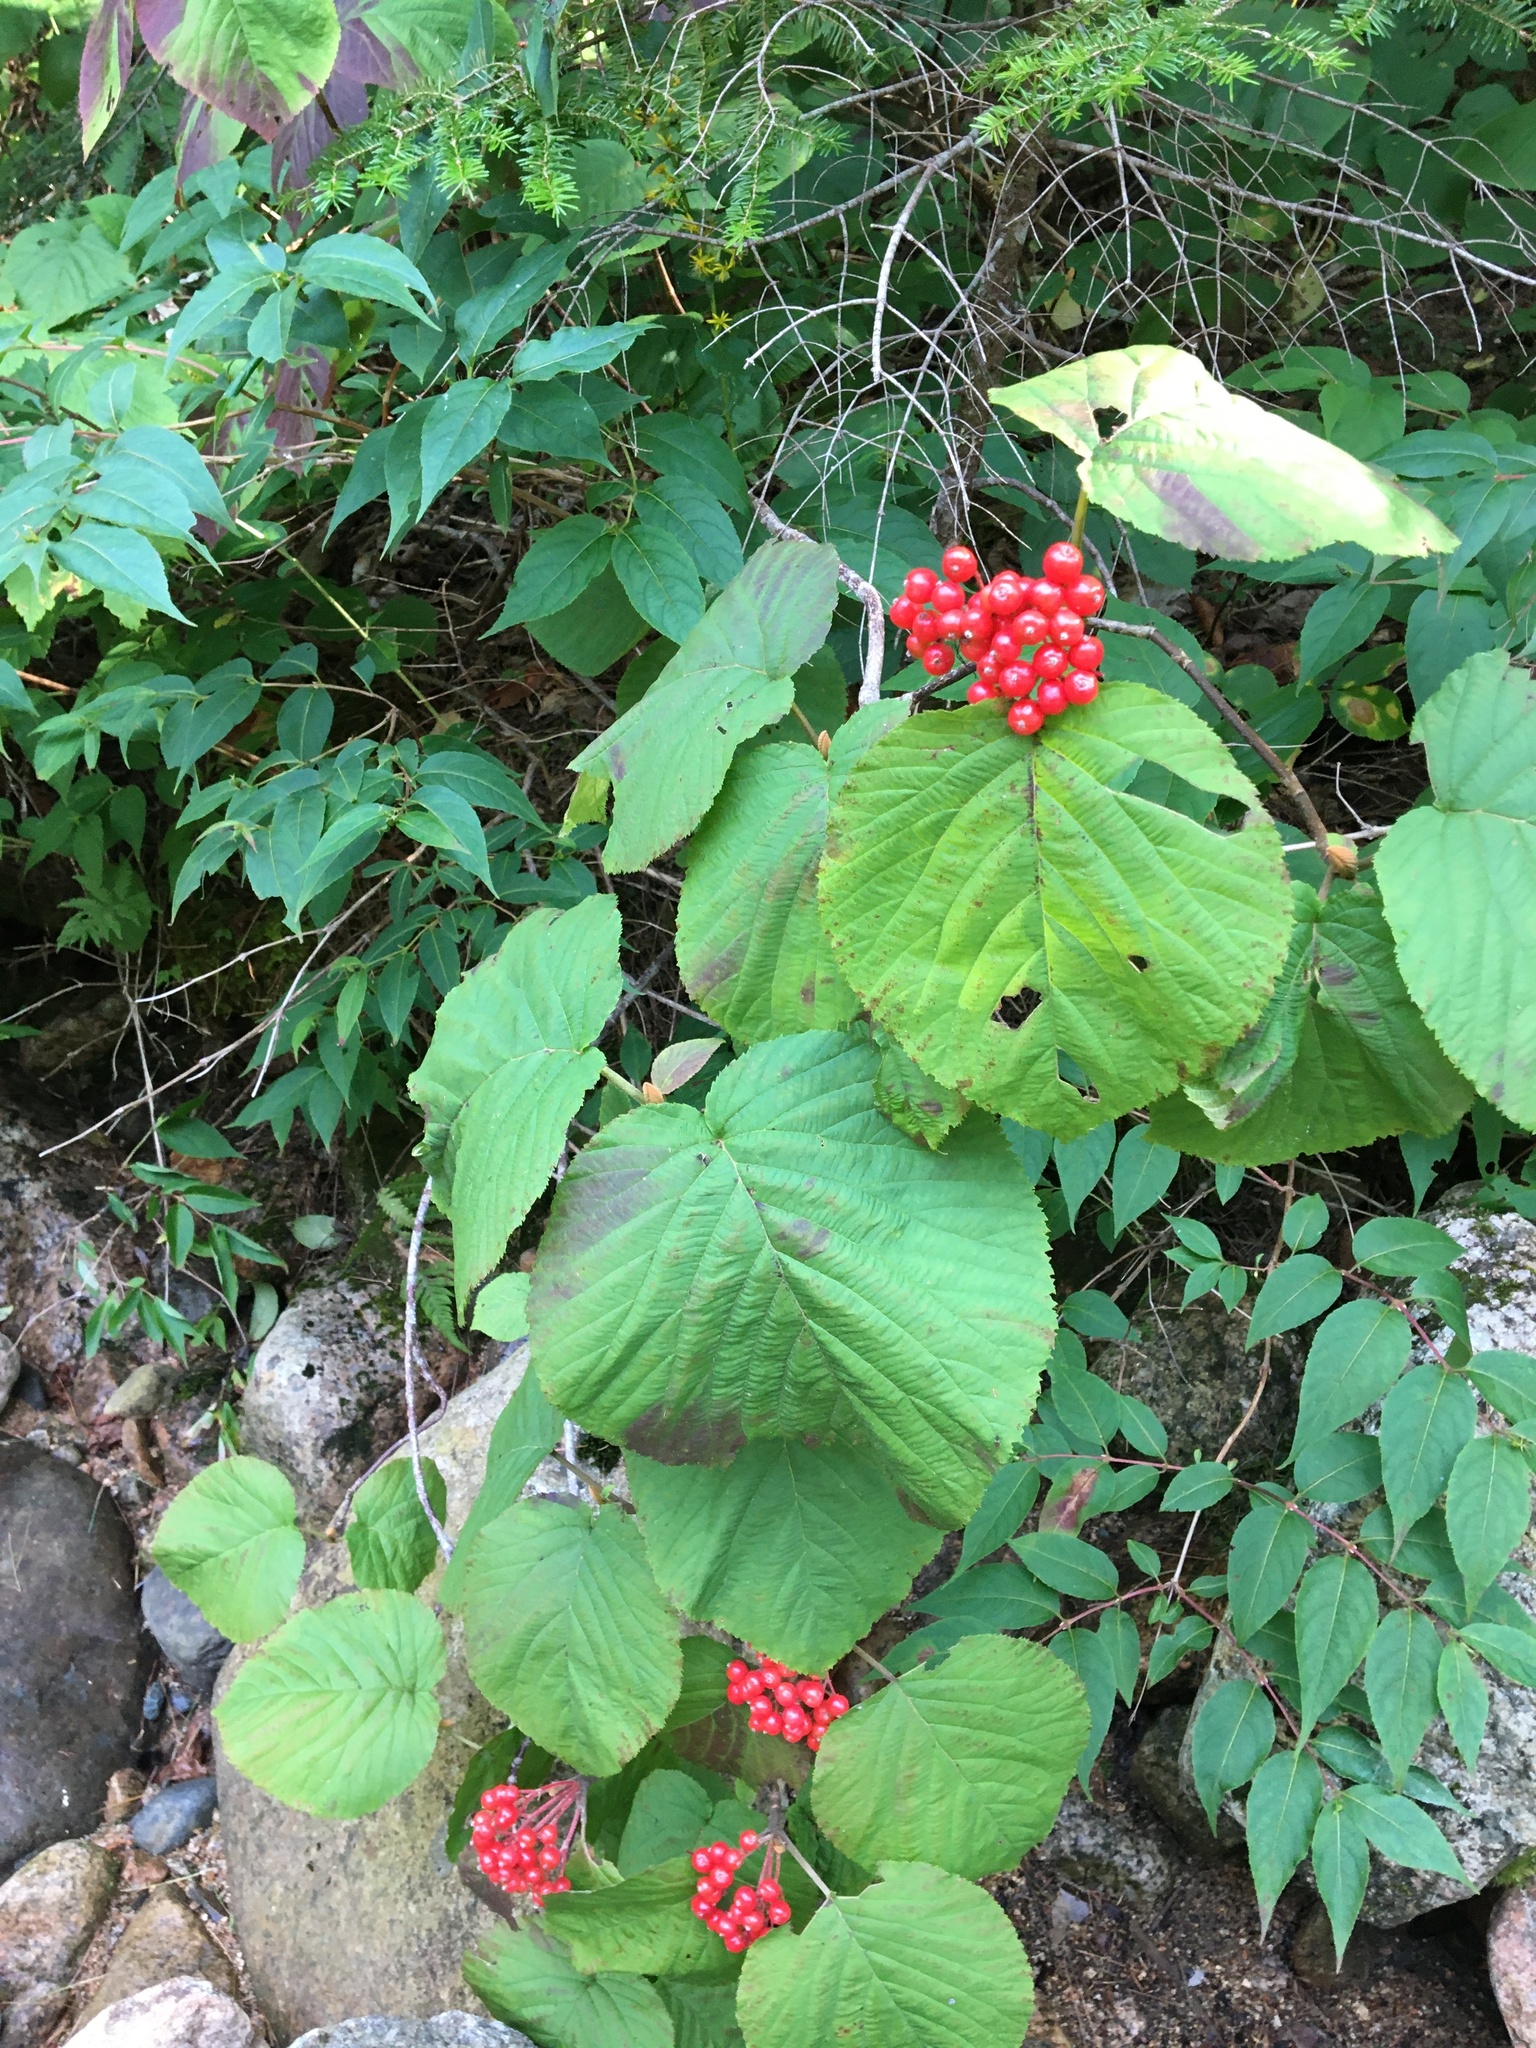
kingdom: Plantae
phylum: Tracheophyta
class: Magnoliopsida
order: Dipsacales
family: Viburnaceae
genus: Viburnum
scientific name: Viburnum lantanoides
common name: Hobblebush
